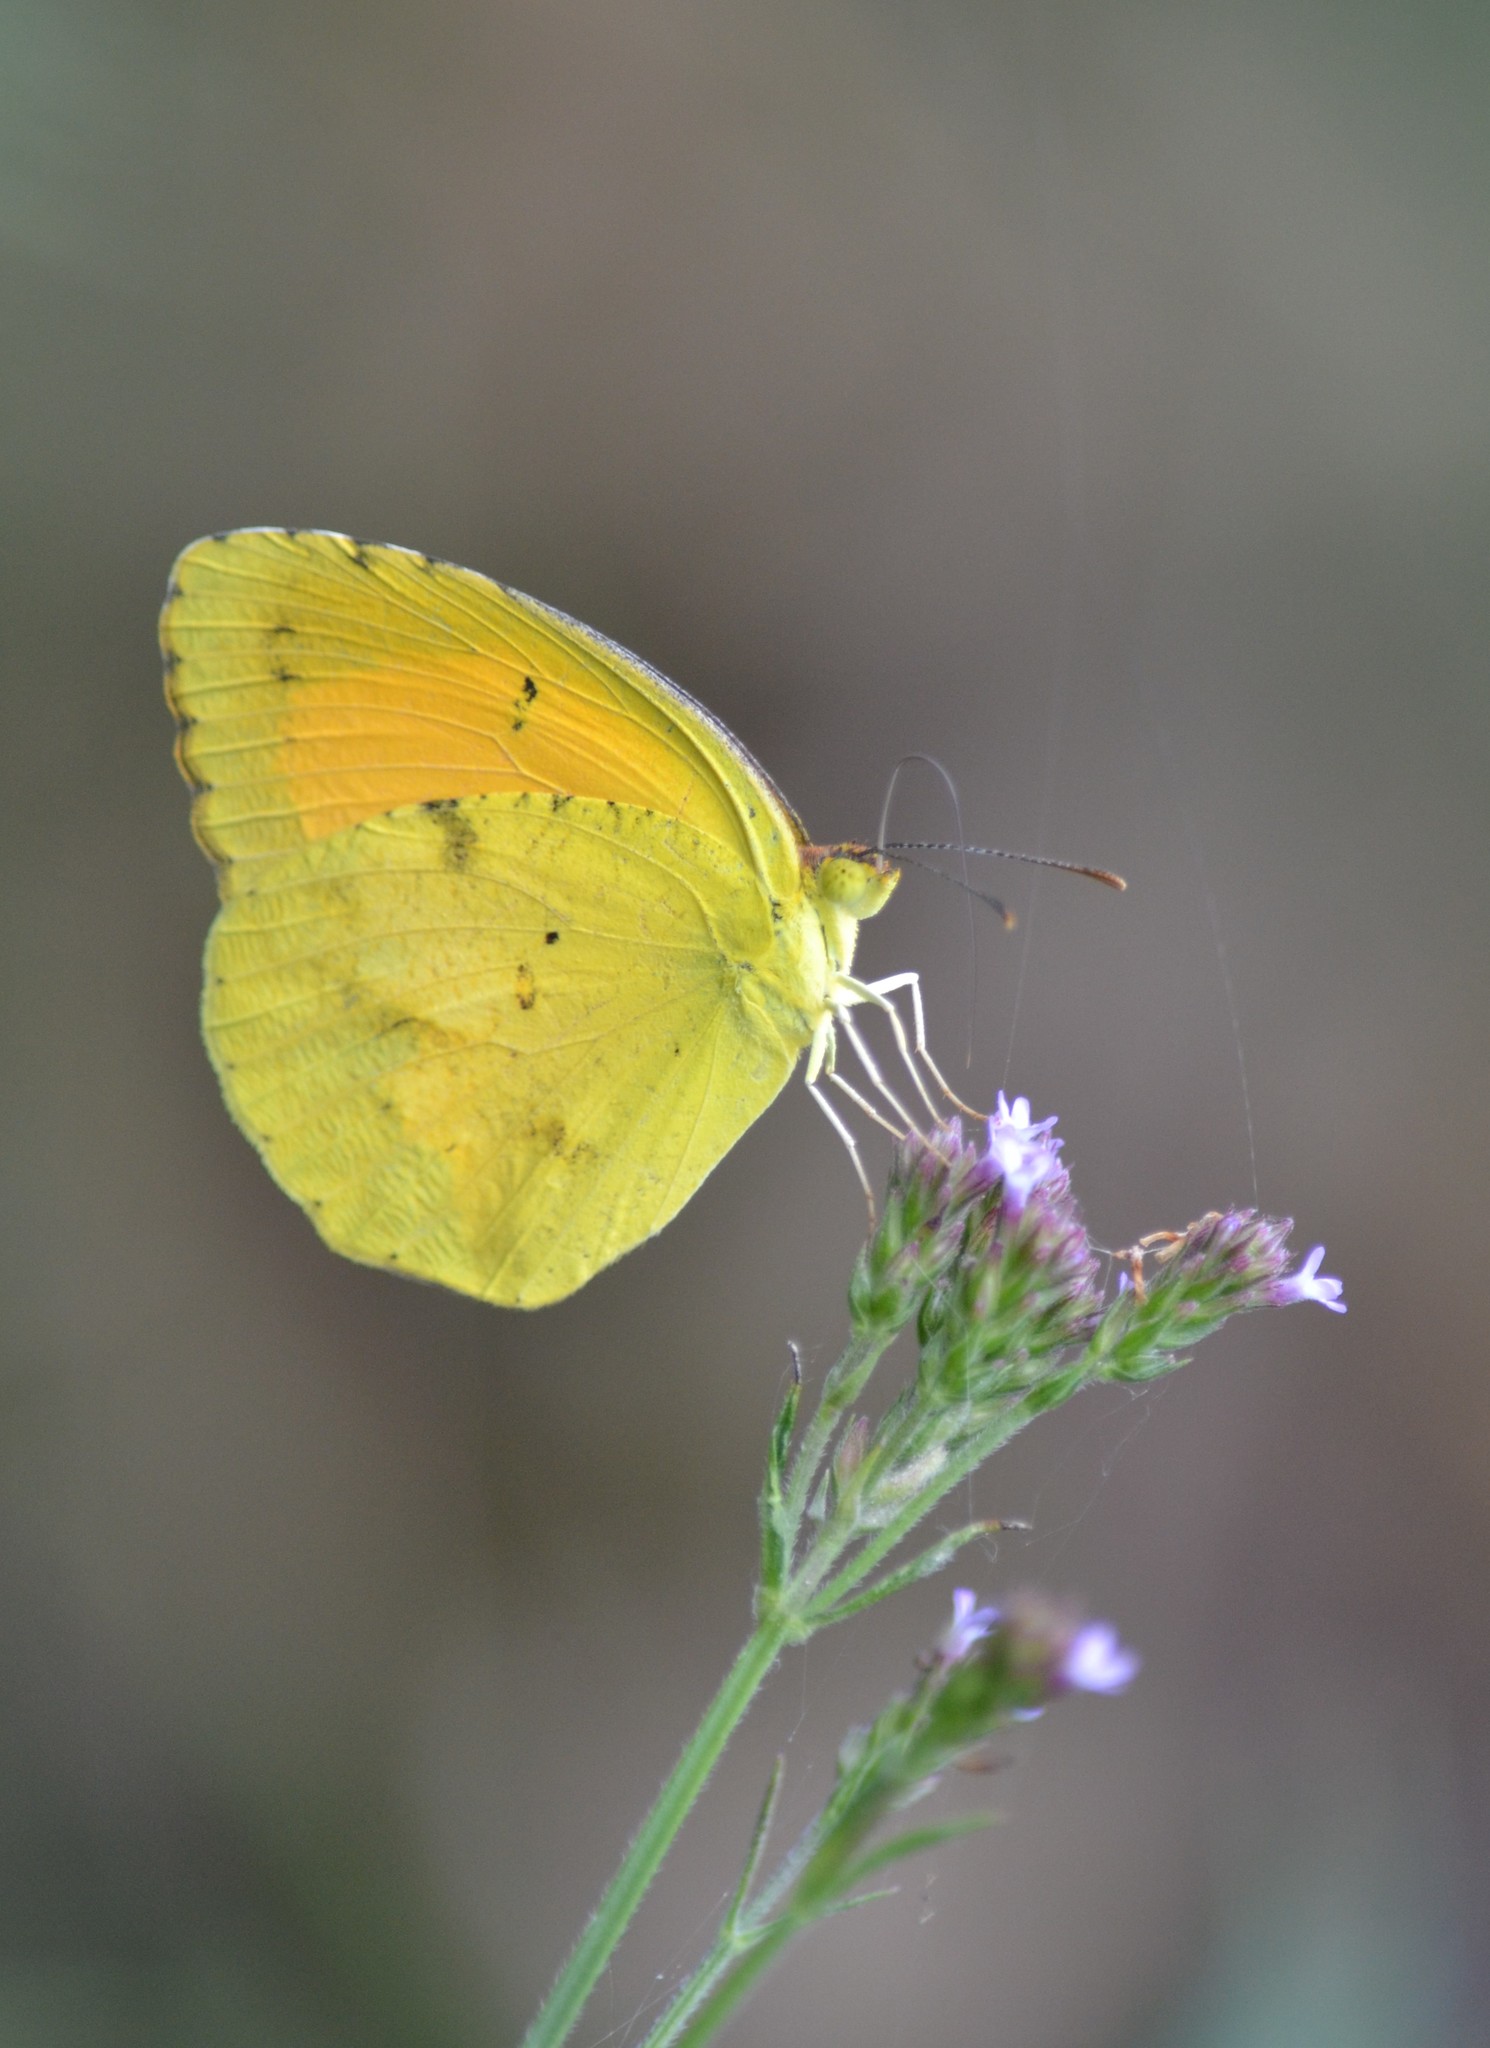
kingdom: Animalia
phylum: Arthropoda
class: Insecta
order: Lepidoptera
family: Pieridae
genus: Abaeis
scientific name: Abaeis nicippe
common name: Sleepy orange
